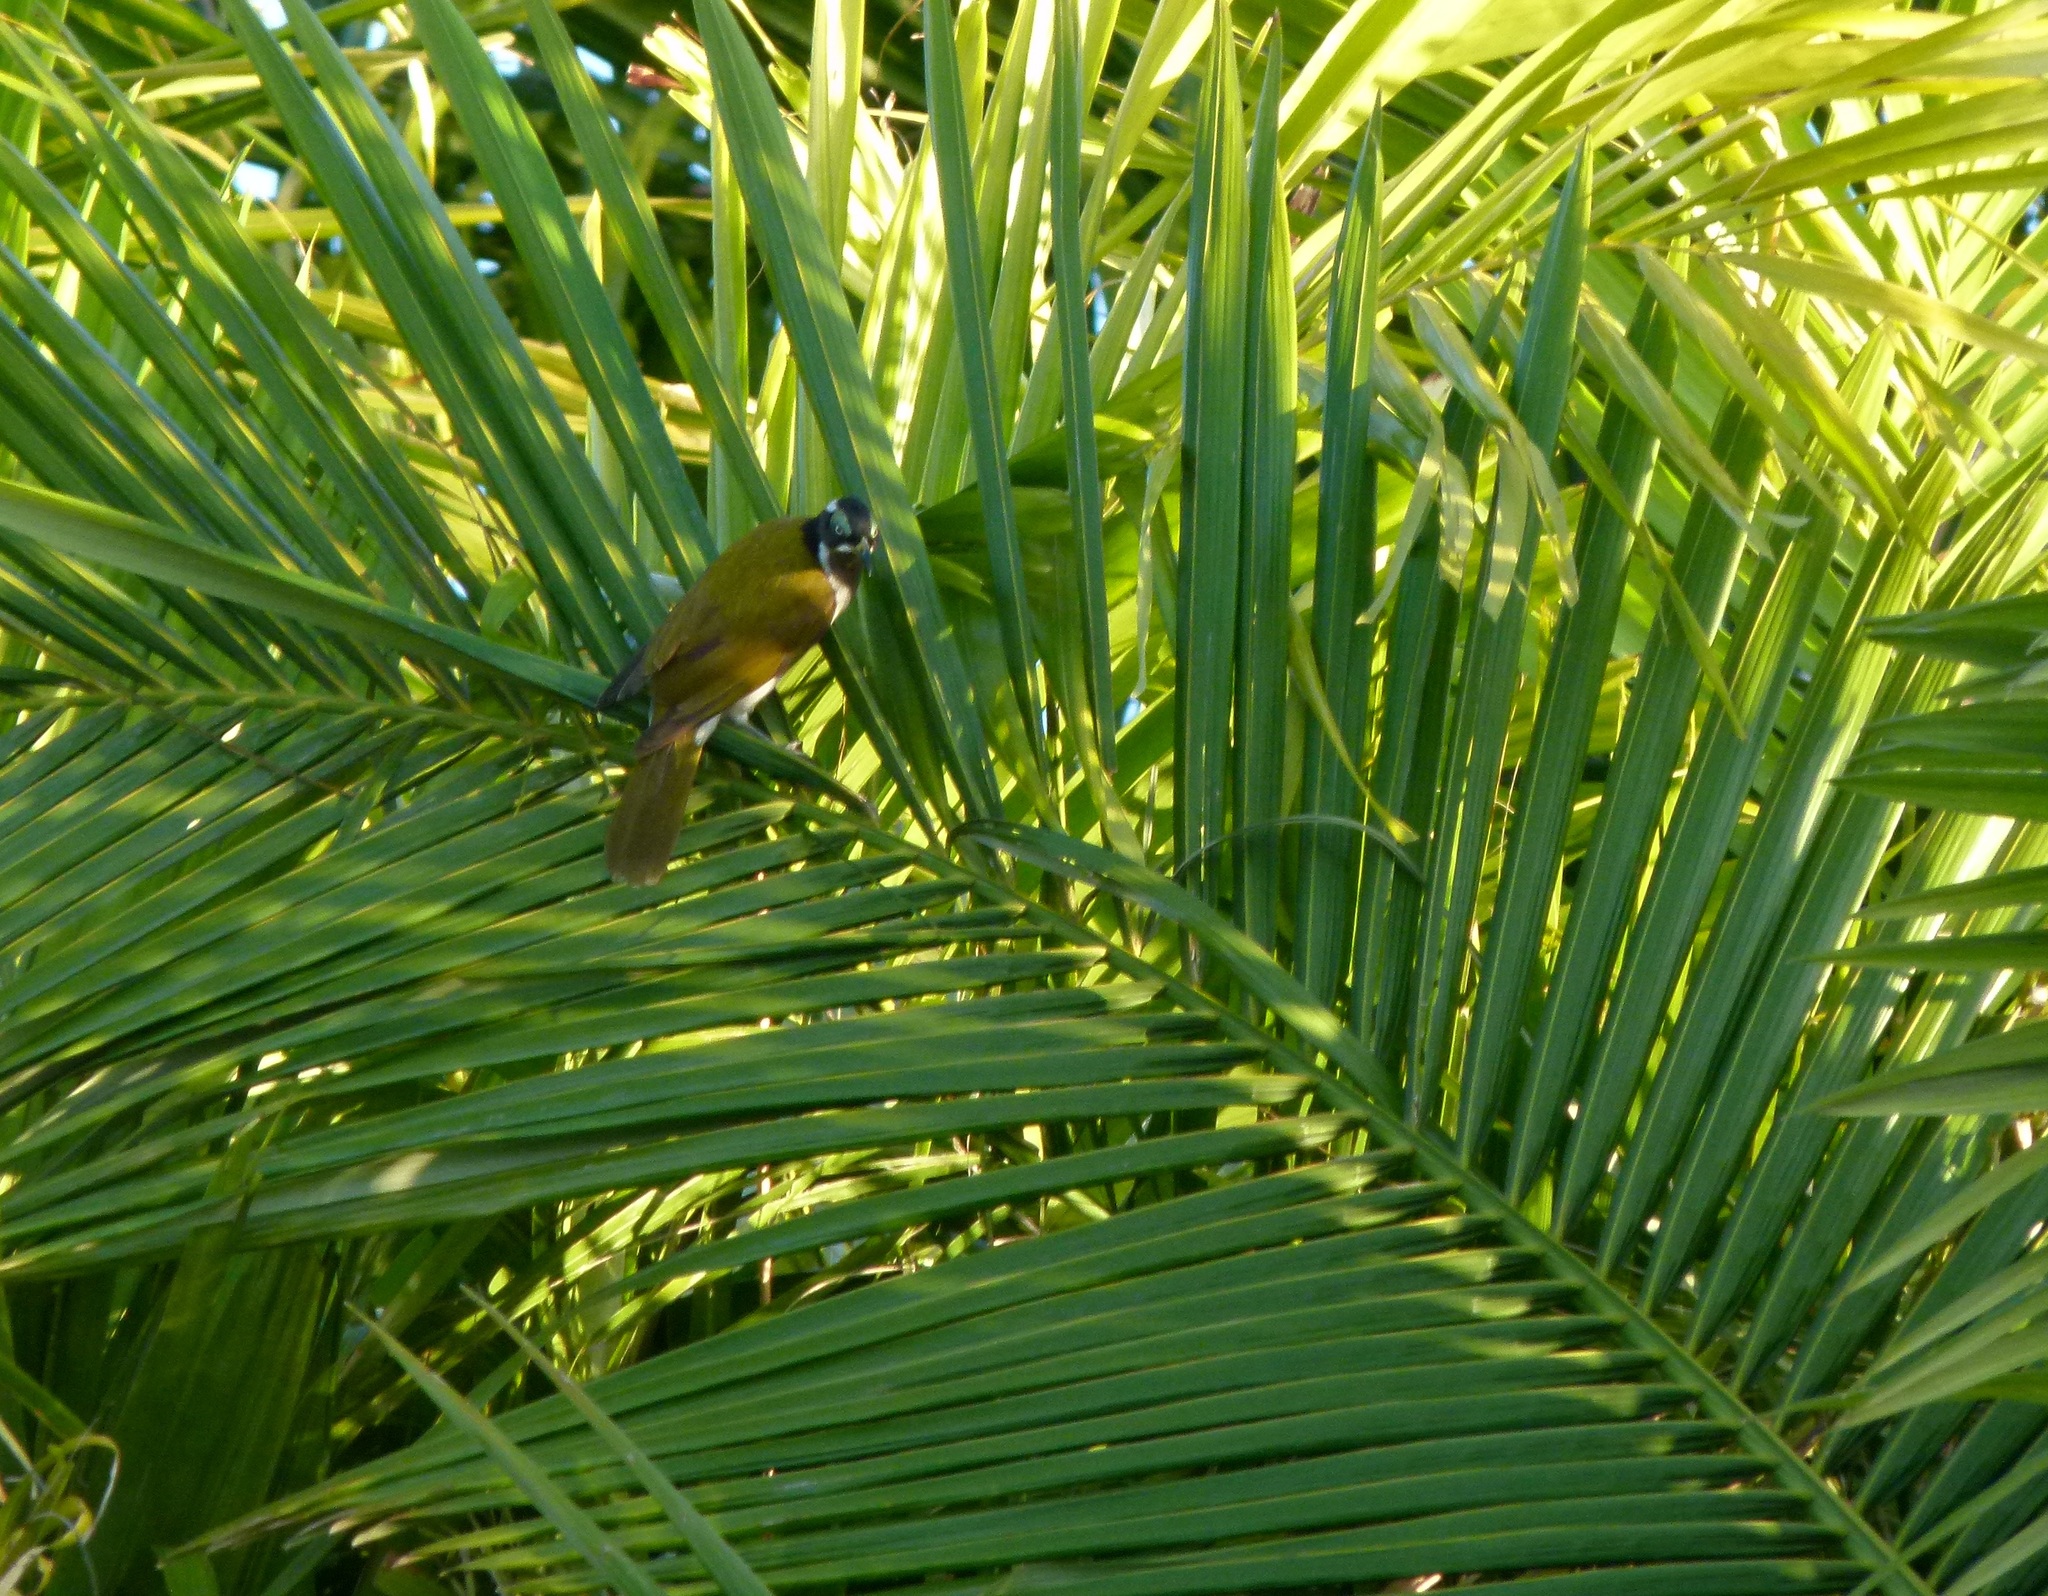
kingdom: Animalia
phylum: Chordata
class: Aves
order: Passeriformes
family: Meliphagidae
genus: Entomyzon
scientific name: Entomyzon cyanotis
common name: Blue-faced honeyeater
